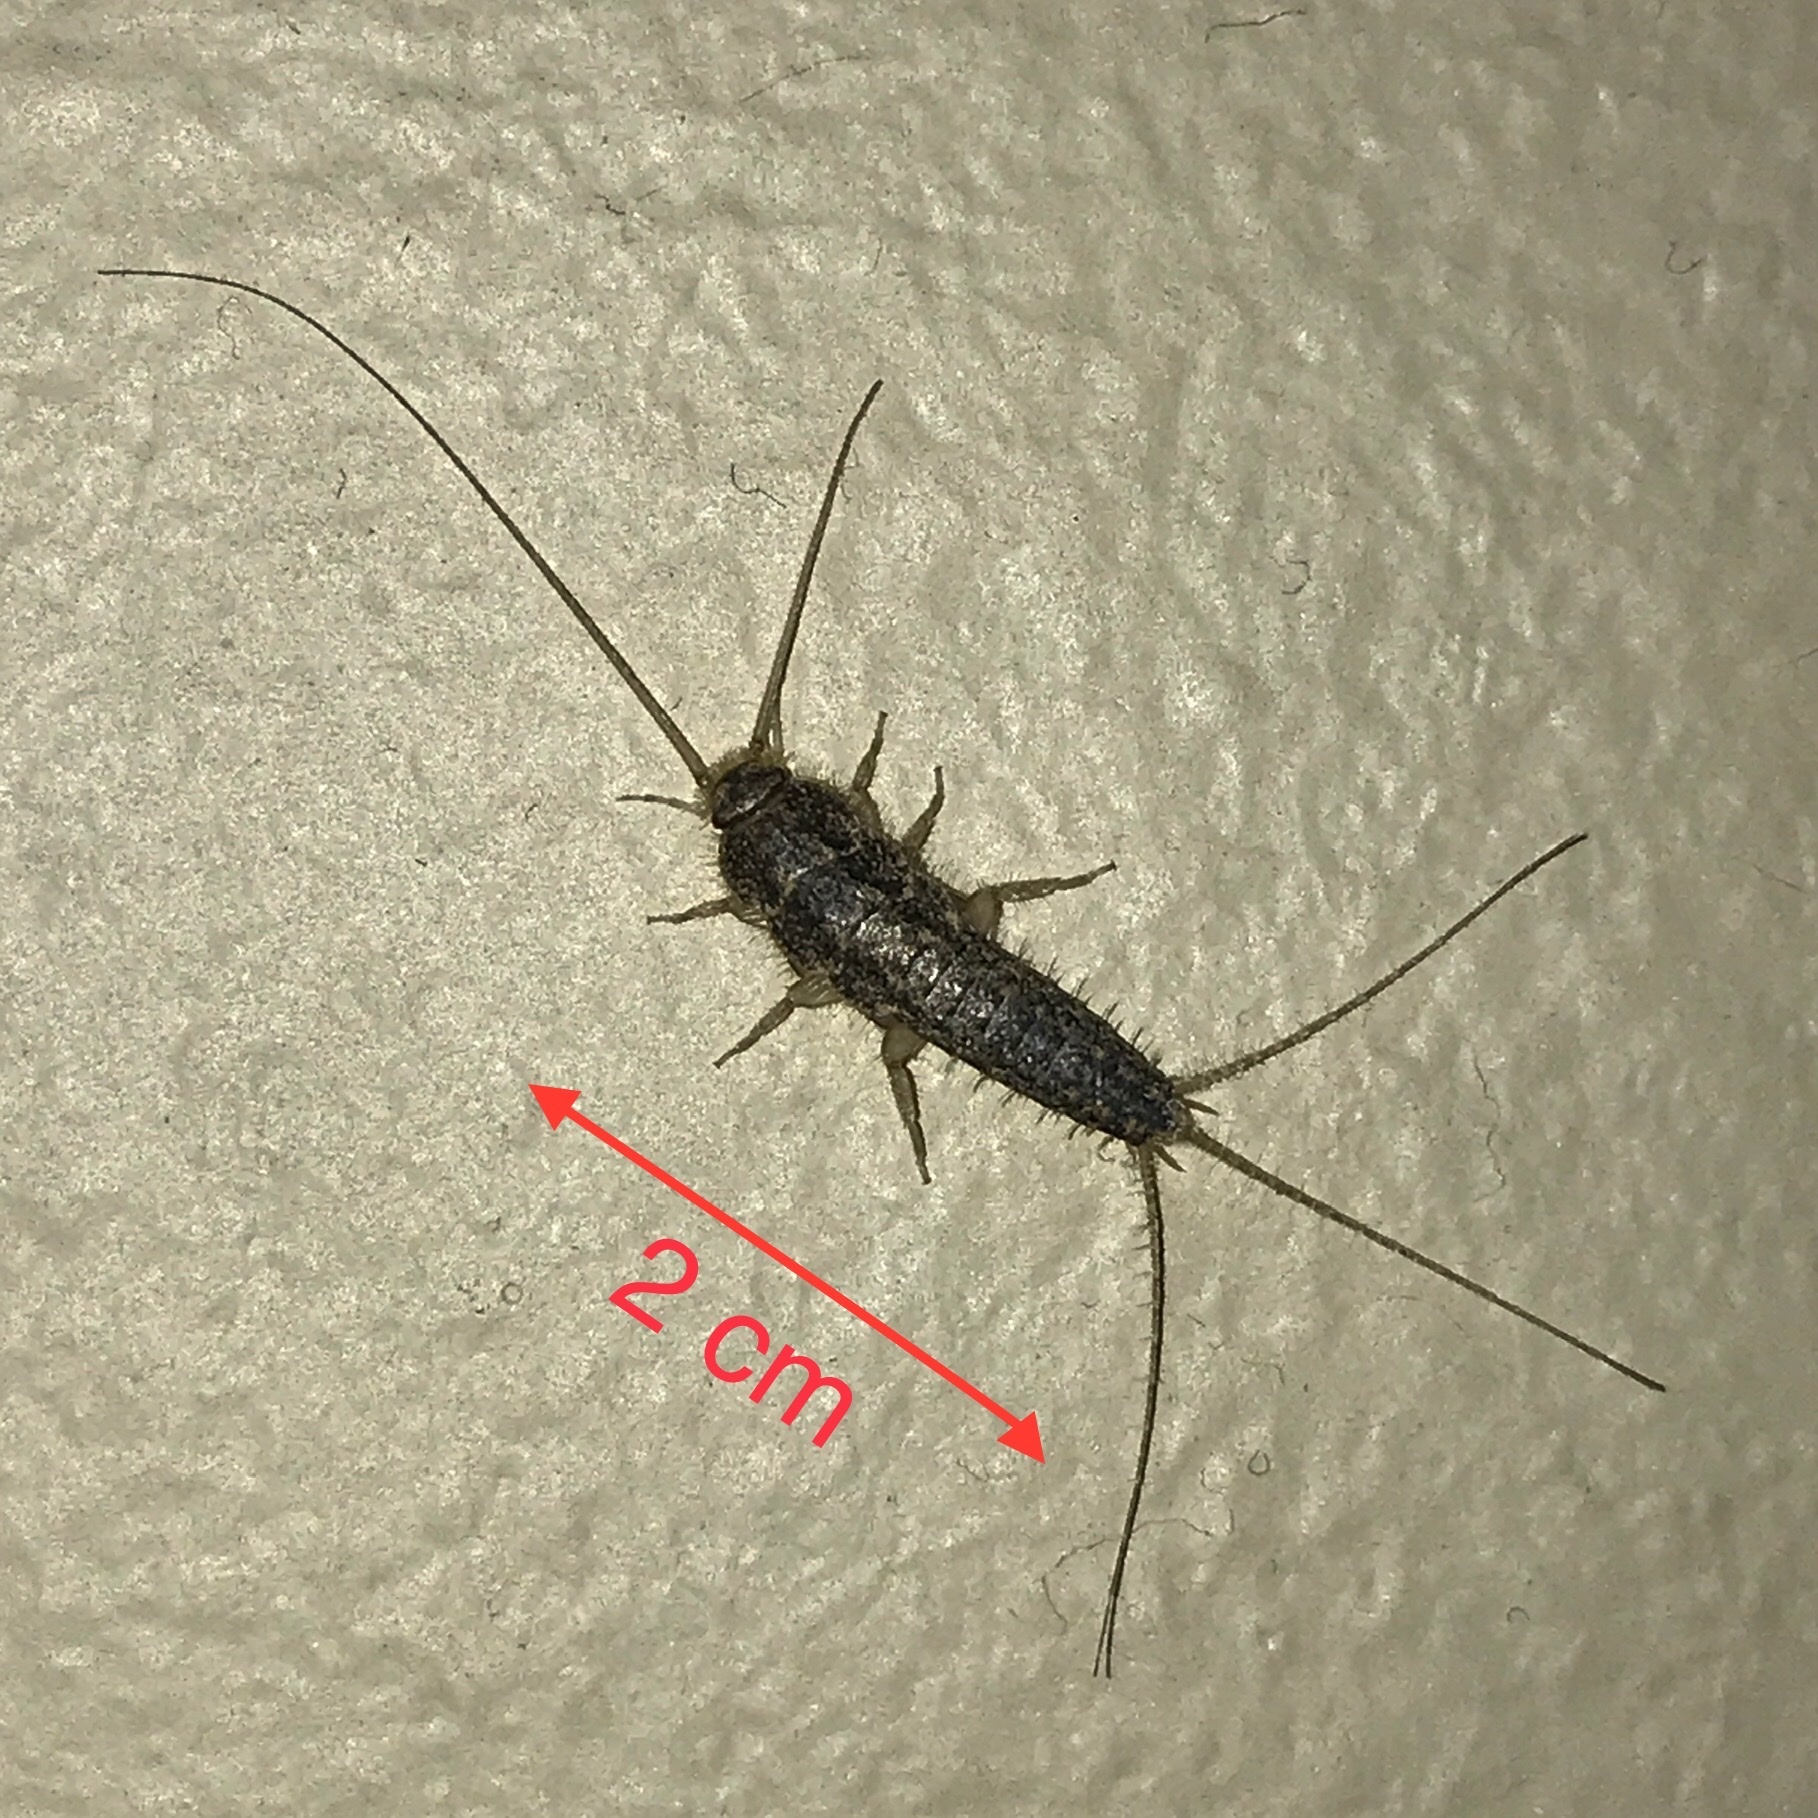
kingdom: Animalia
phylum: Arthropoda
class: Insecta
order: Zygentoma
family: Lepismatidae
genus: Ctenolepisma
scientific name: Ctenolepisma lineata
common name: Four-lined silverfish
